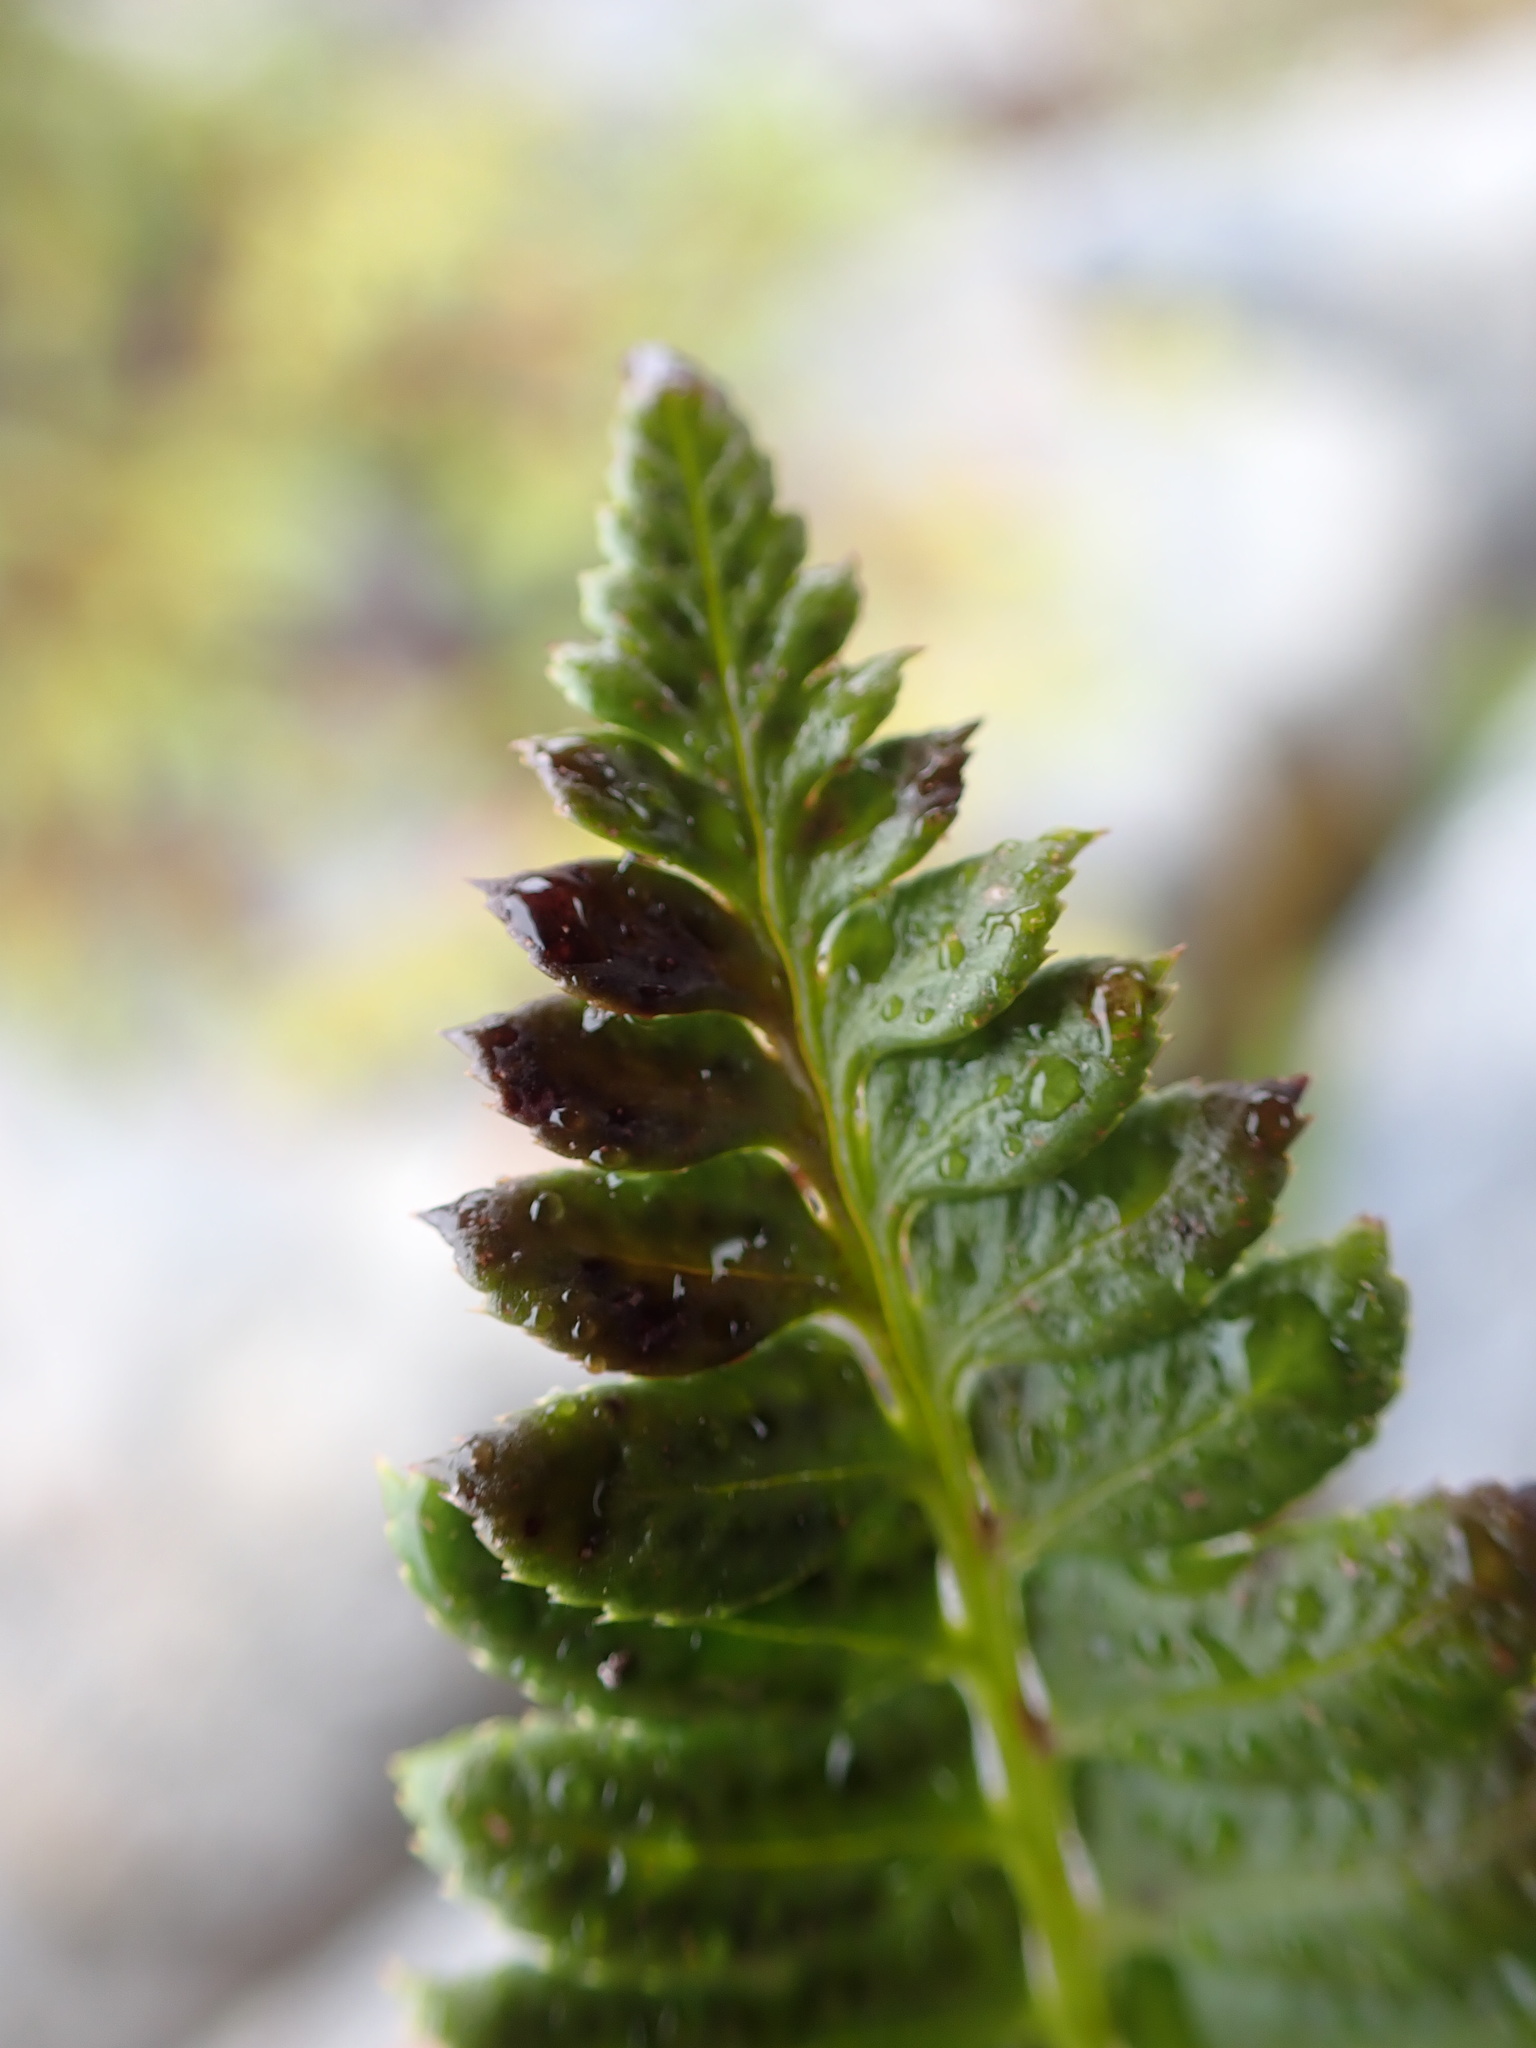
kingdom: Plantae
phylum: Tracheophyta
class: Polypodiopsida
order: Polypodiales
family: Dryopteridaceae
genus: Polystichum
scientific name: Polystichum lonchitis
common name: Holly fern
